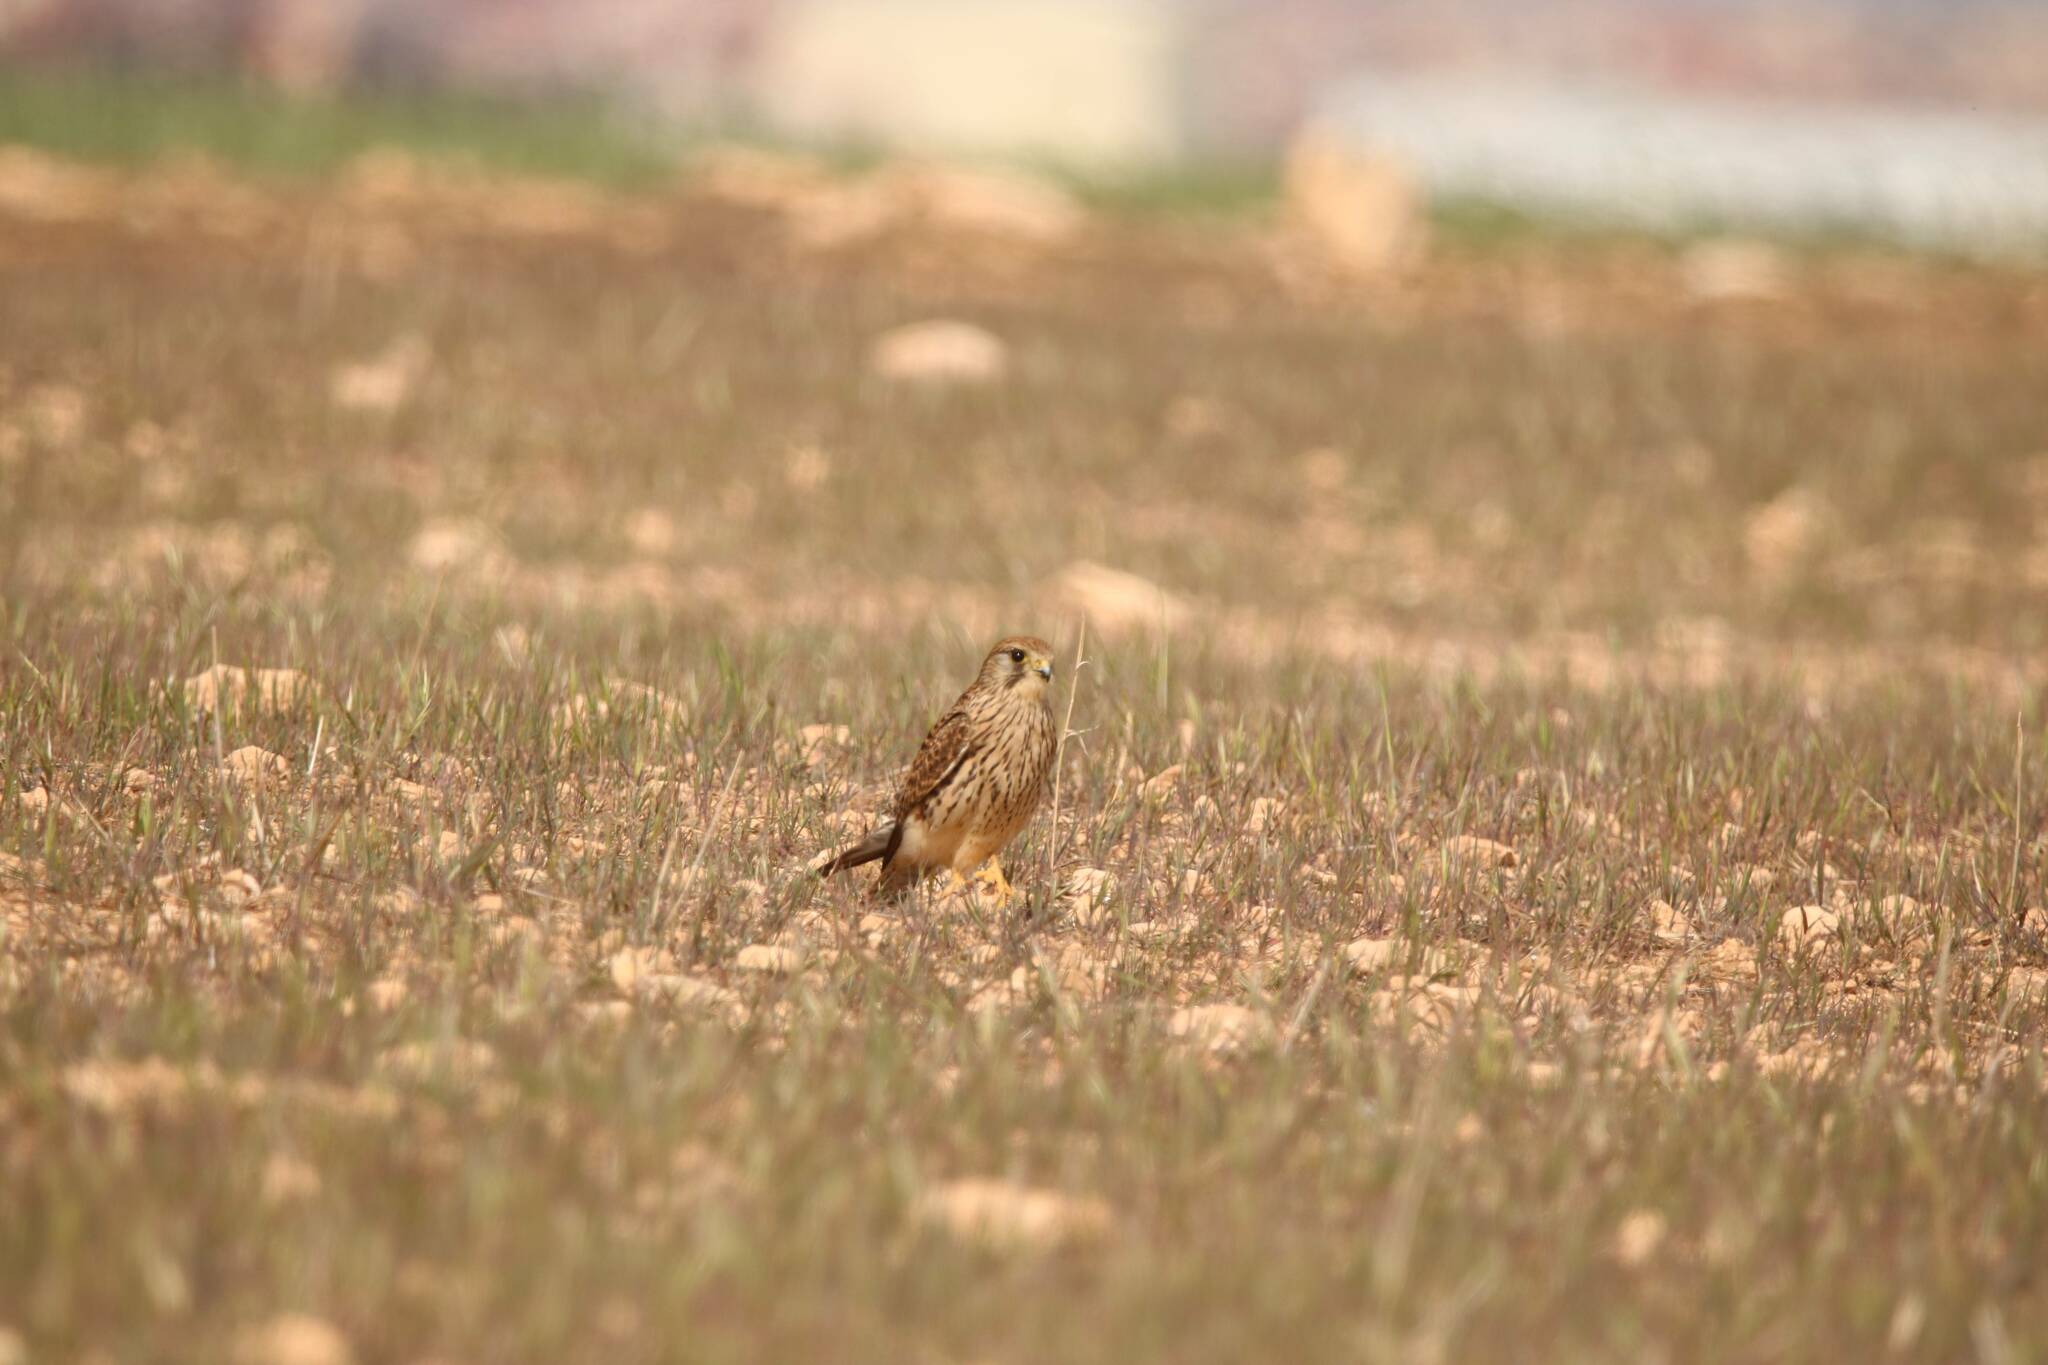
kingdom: Animalia
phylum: Chordata
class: Aves
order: Falconiformes
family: Falconidae
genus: Falco
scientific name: Falco tinnunculus
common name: Common kestrel
